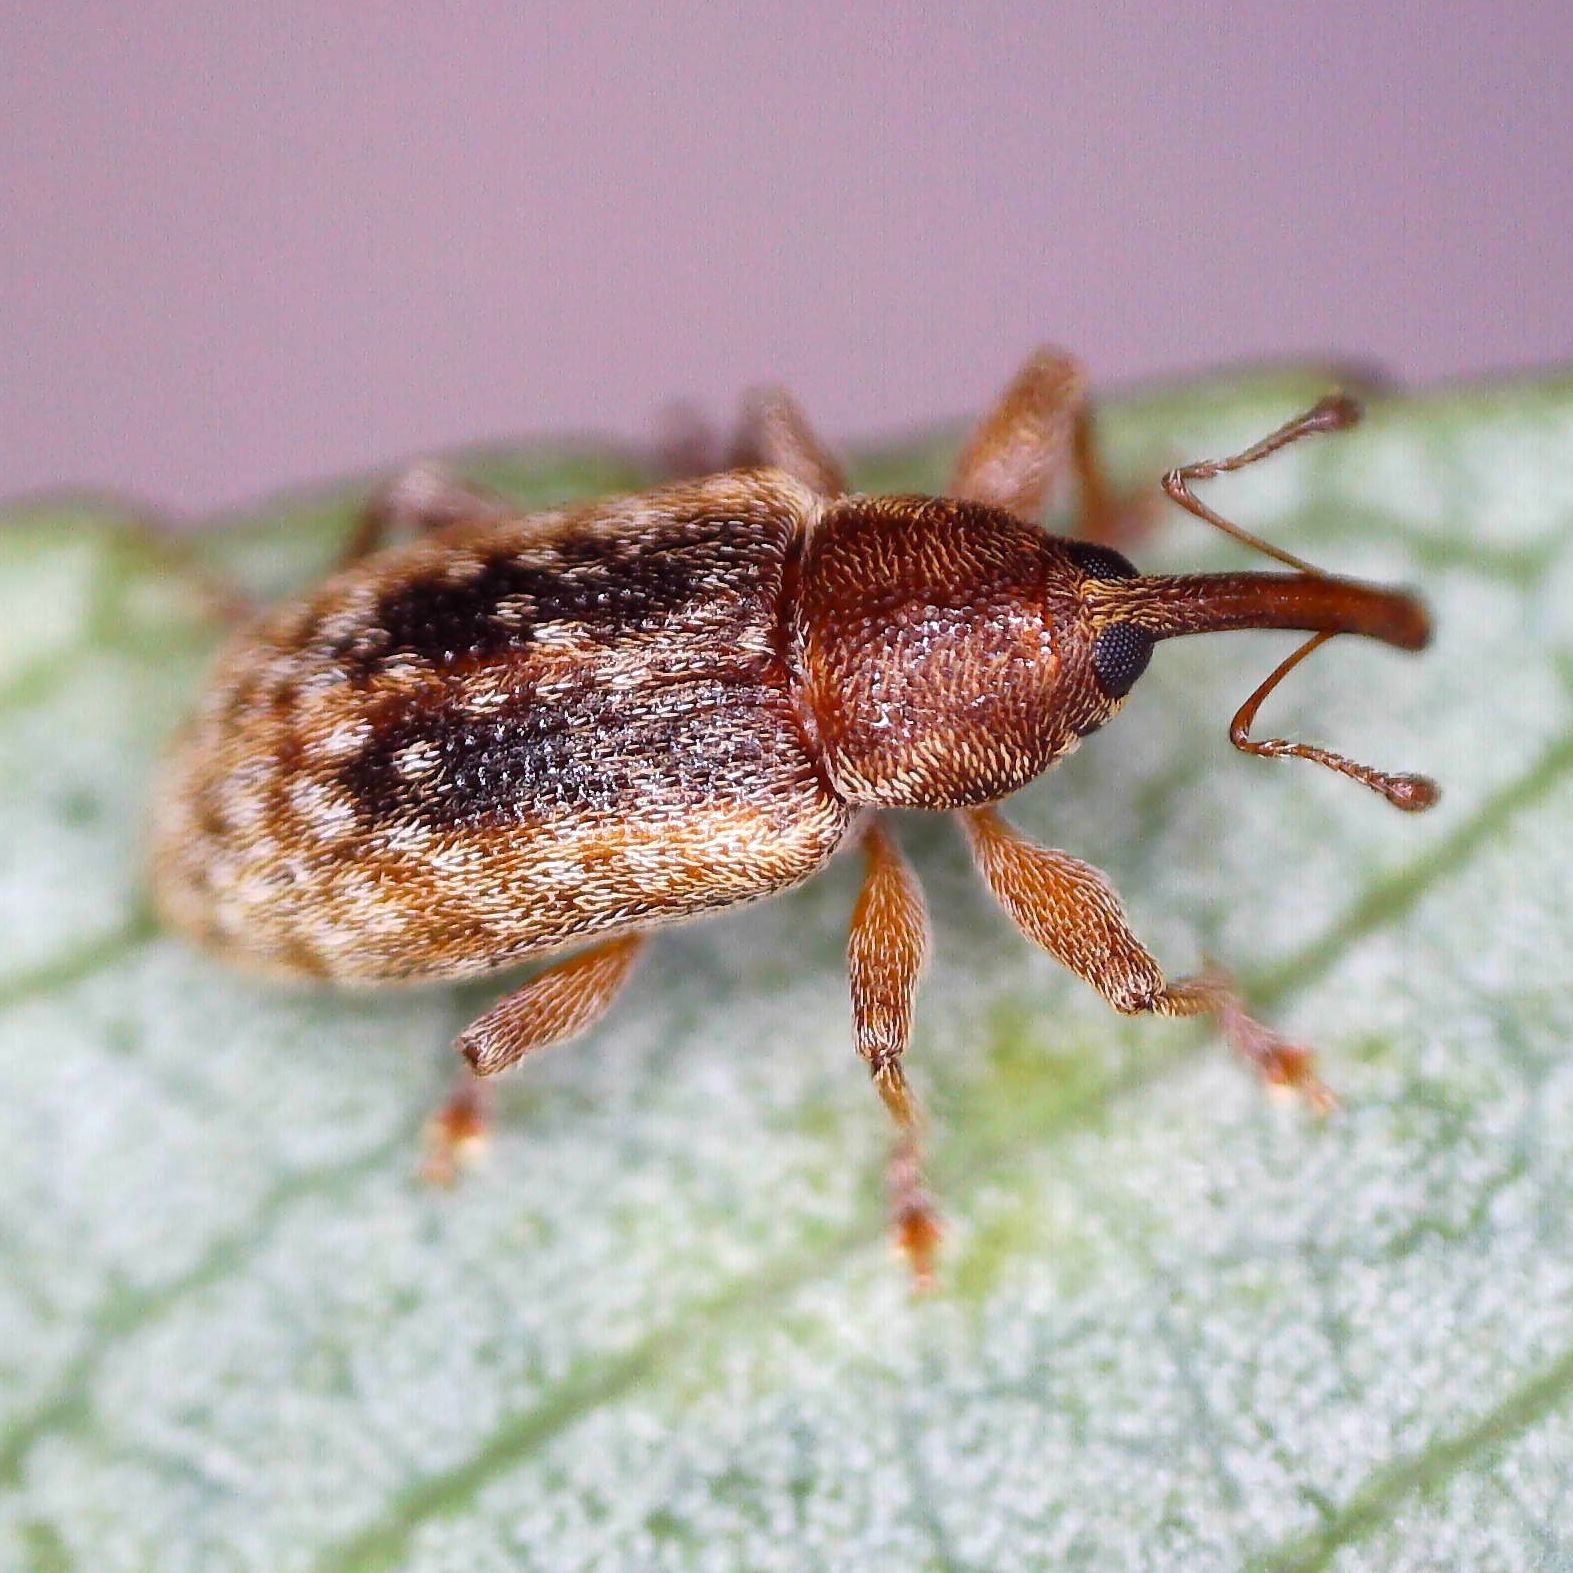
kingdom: Animalia
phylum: Arthropoda
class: Insecta
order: Coleoptera
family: Curculionidae
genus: Dorytomus
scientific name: Dorytomus melanophthalmus
